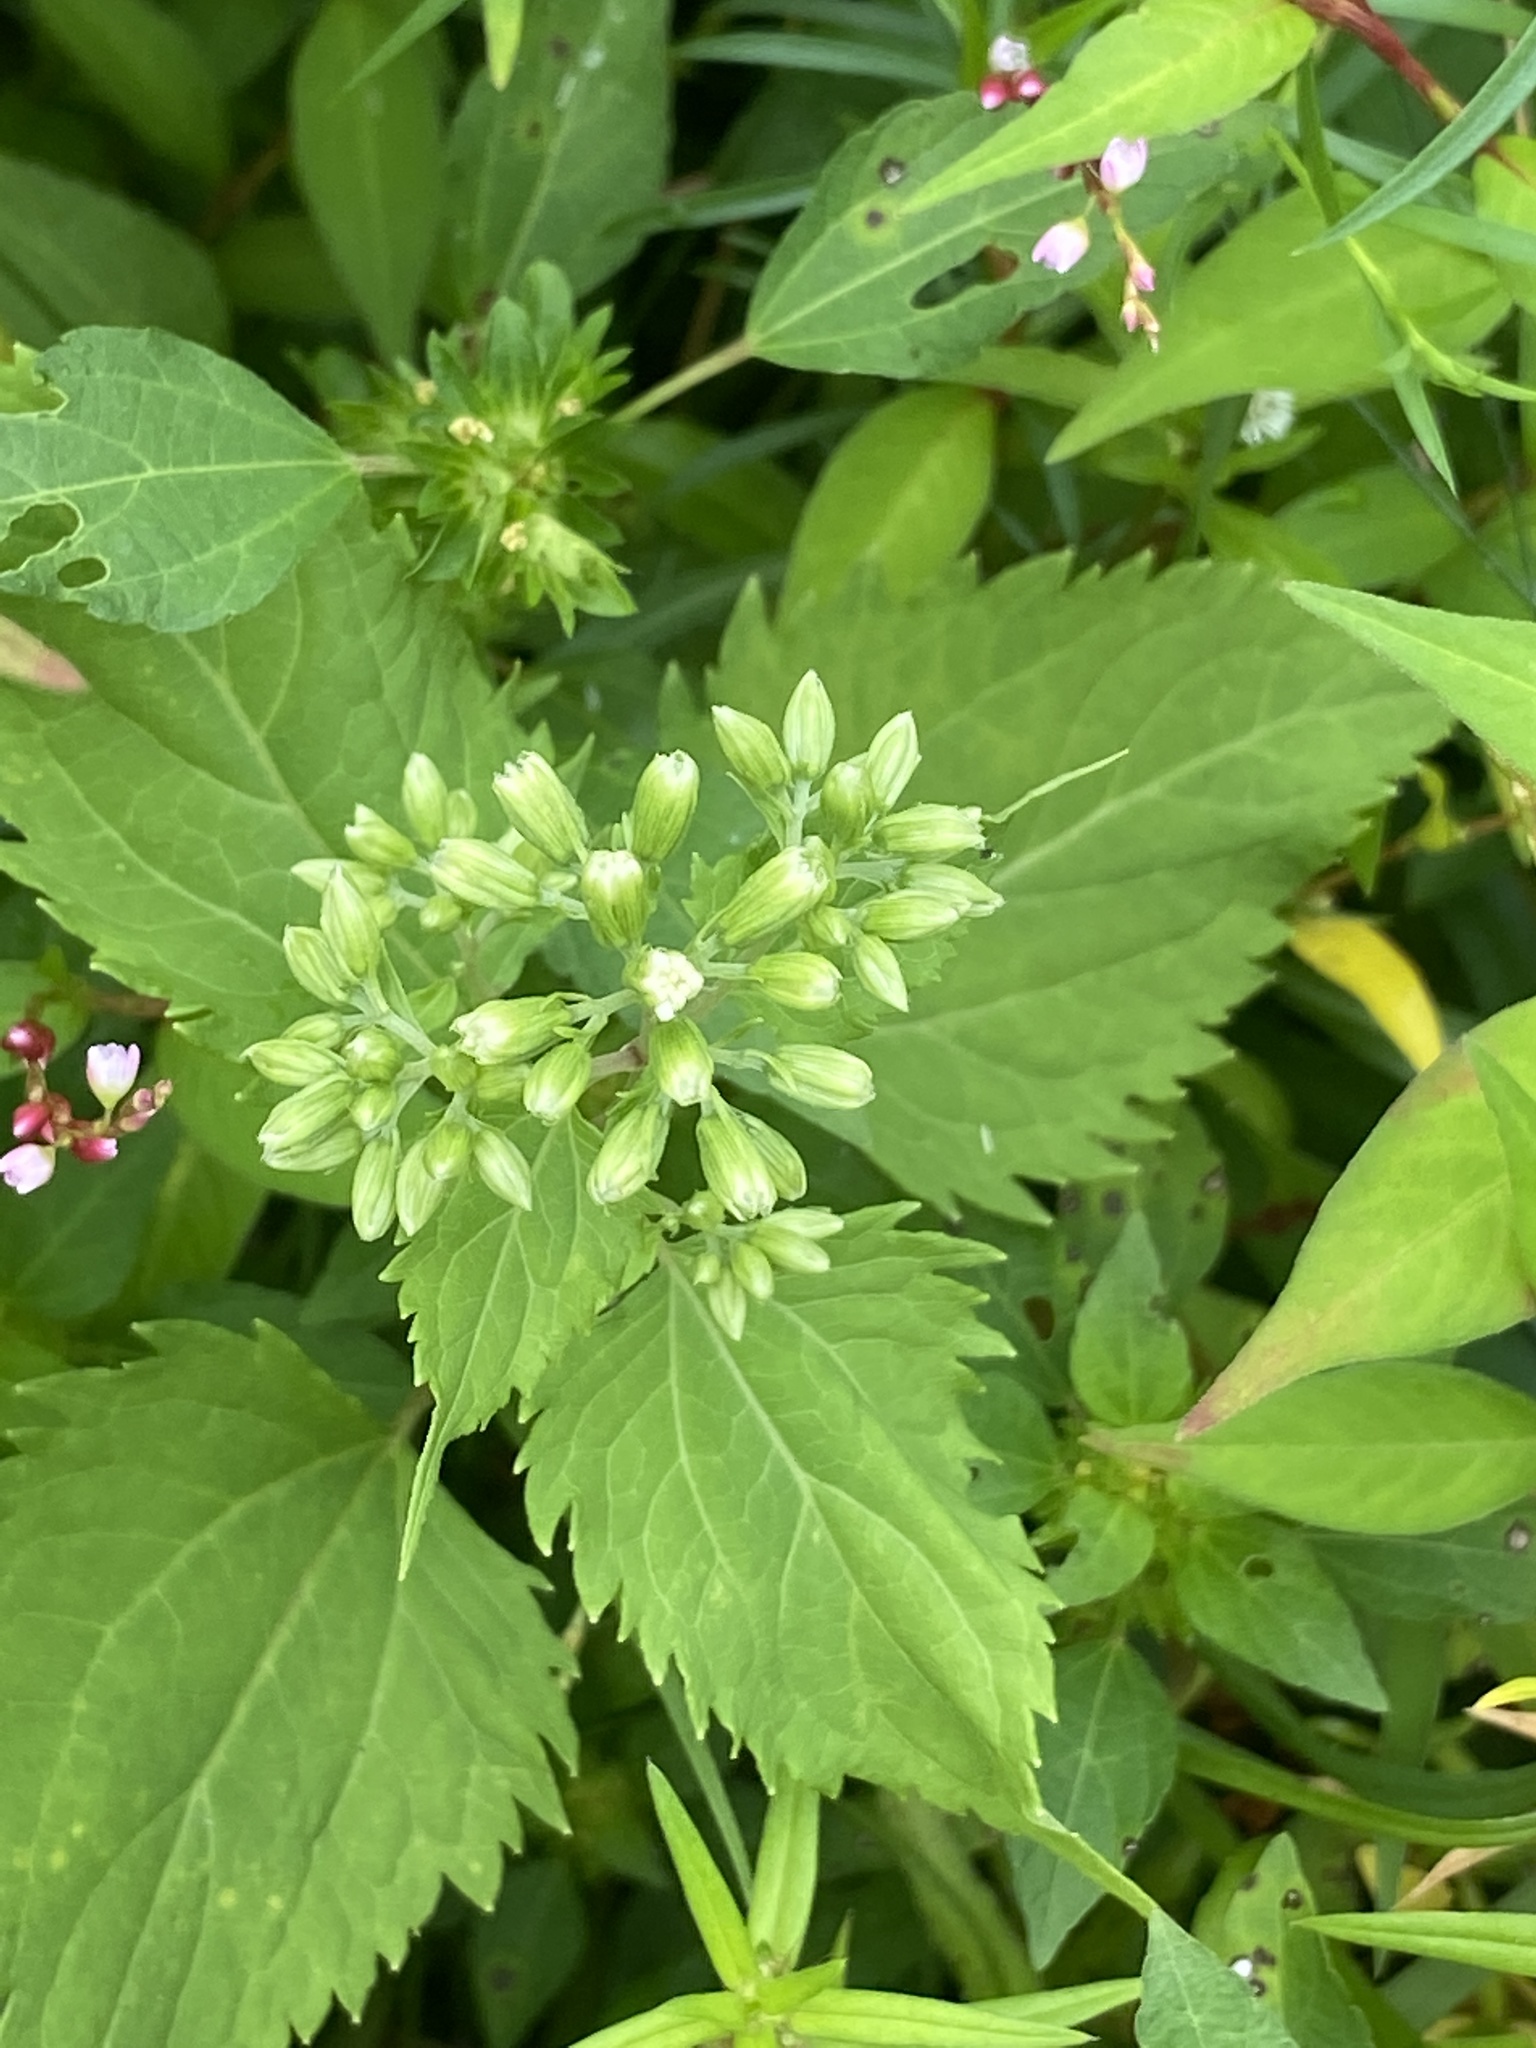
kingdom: Plantae
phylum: Tracheophyta
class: Magnoliopsida
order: Asterales
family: Asteraceae
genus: Ageratina
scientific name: Ageratina altissima
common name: White snakeroot
